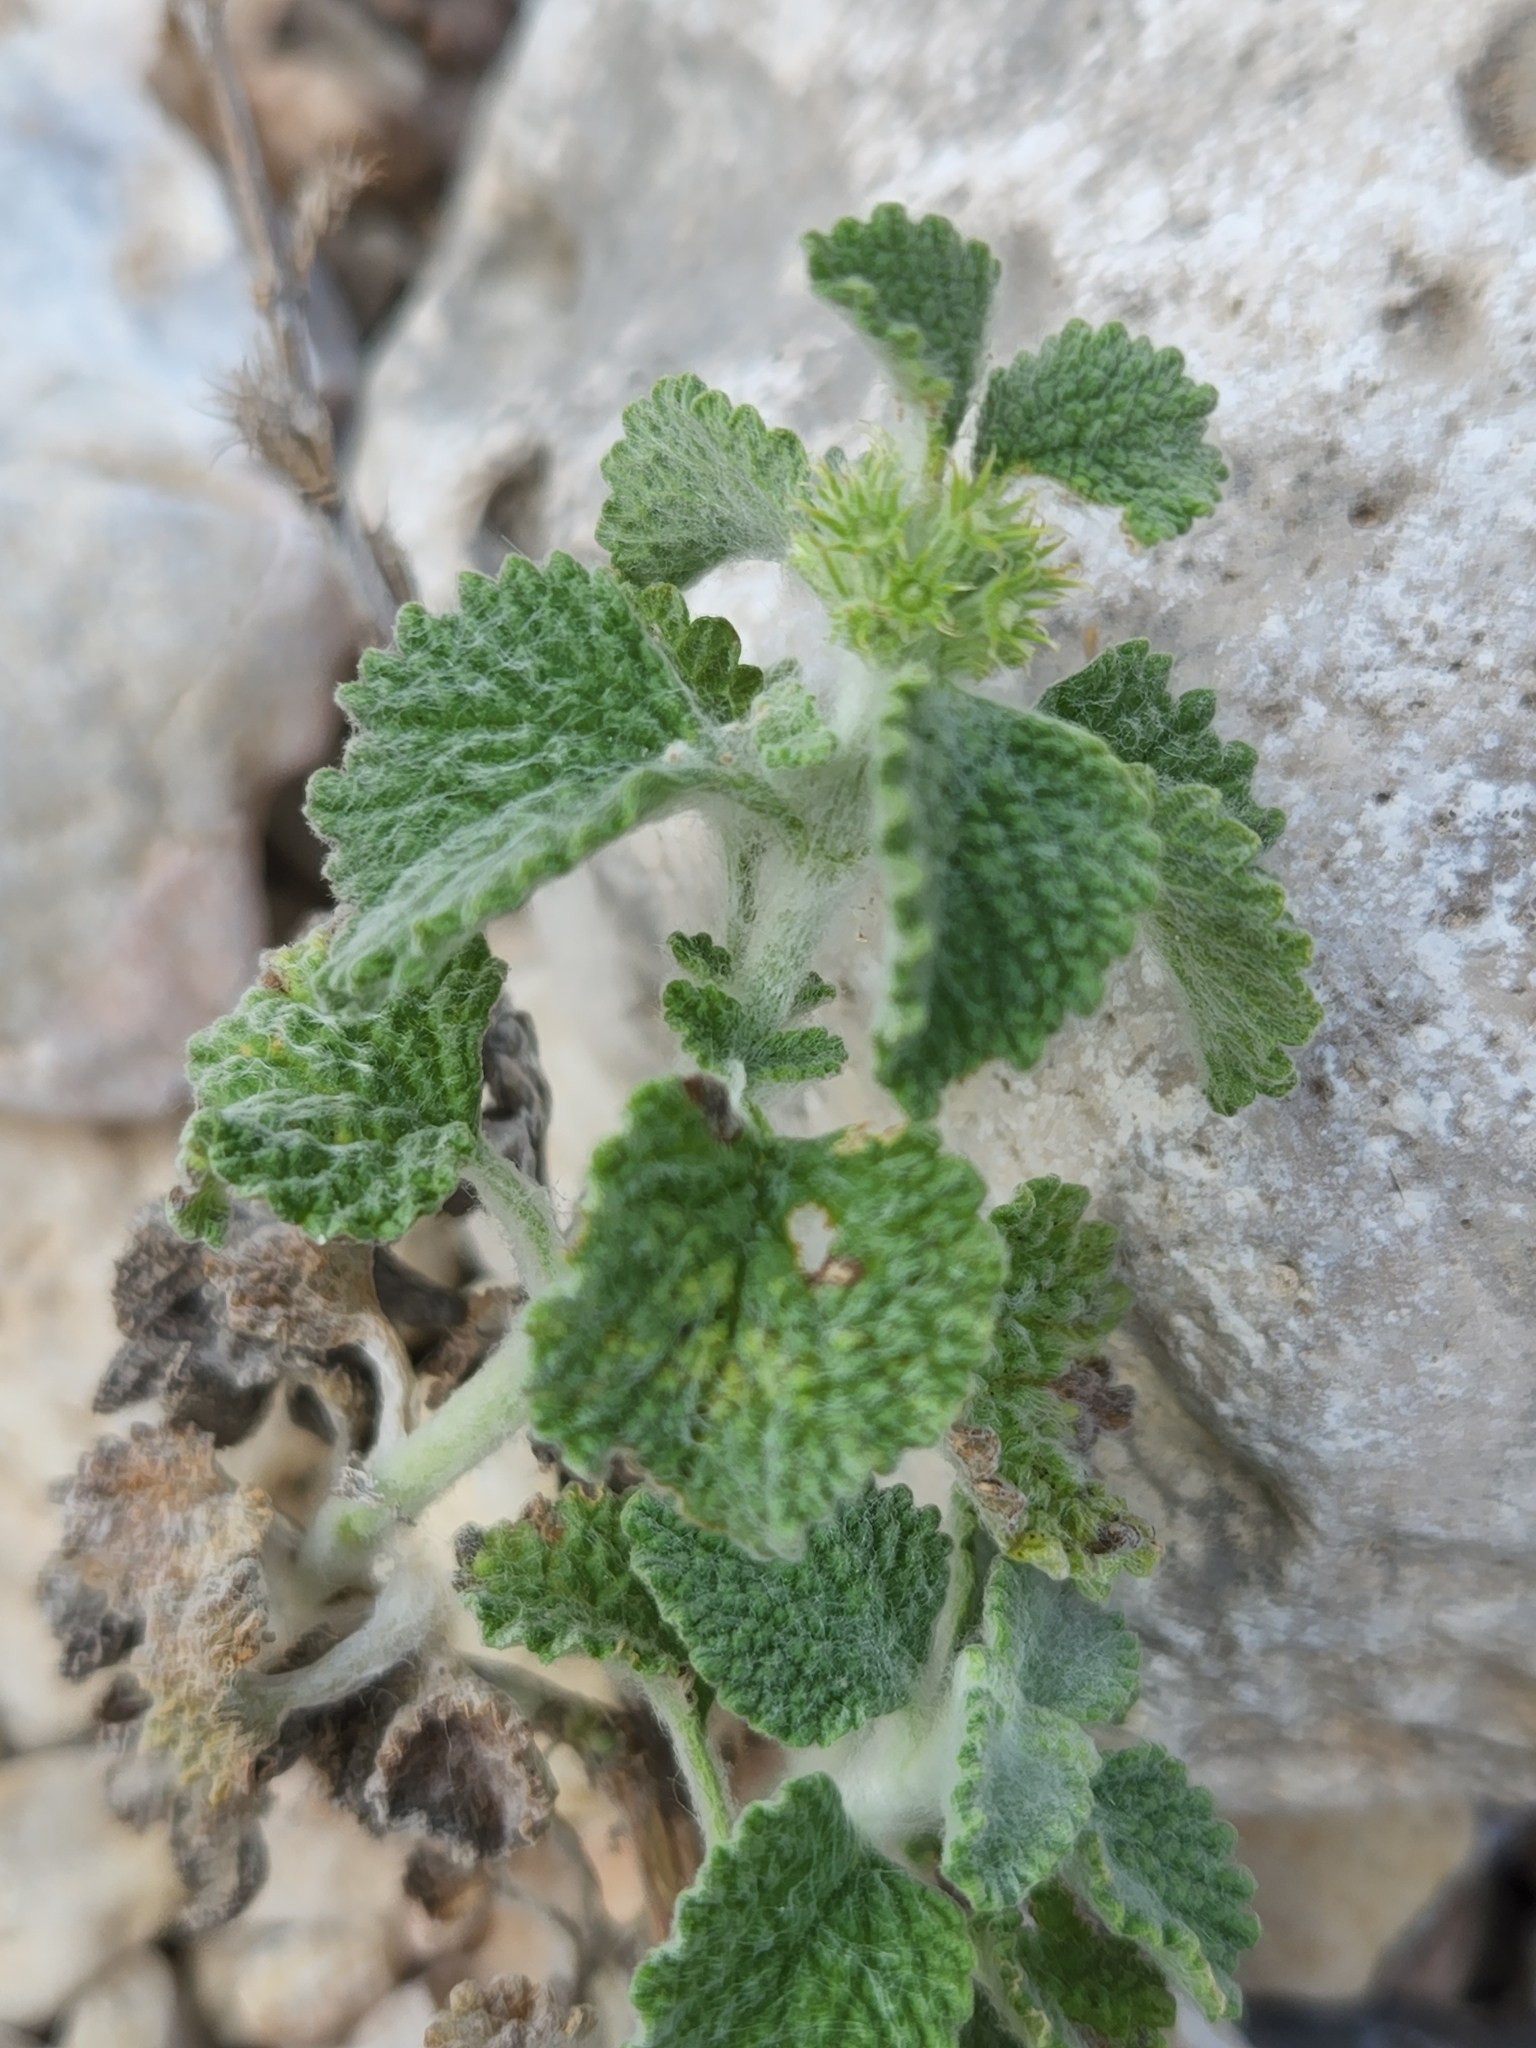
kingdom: Plantae
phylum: Tracheophyta
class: Magnoliopsida
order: Lamiales
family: Lamiaceae
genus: Marrubium
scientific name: Marrubium vulgare
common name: Horehound
